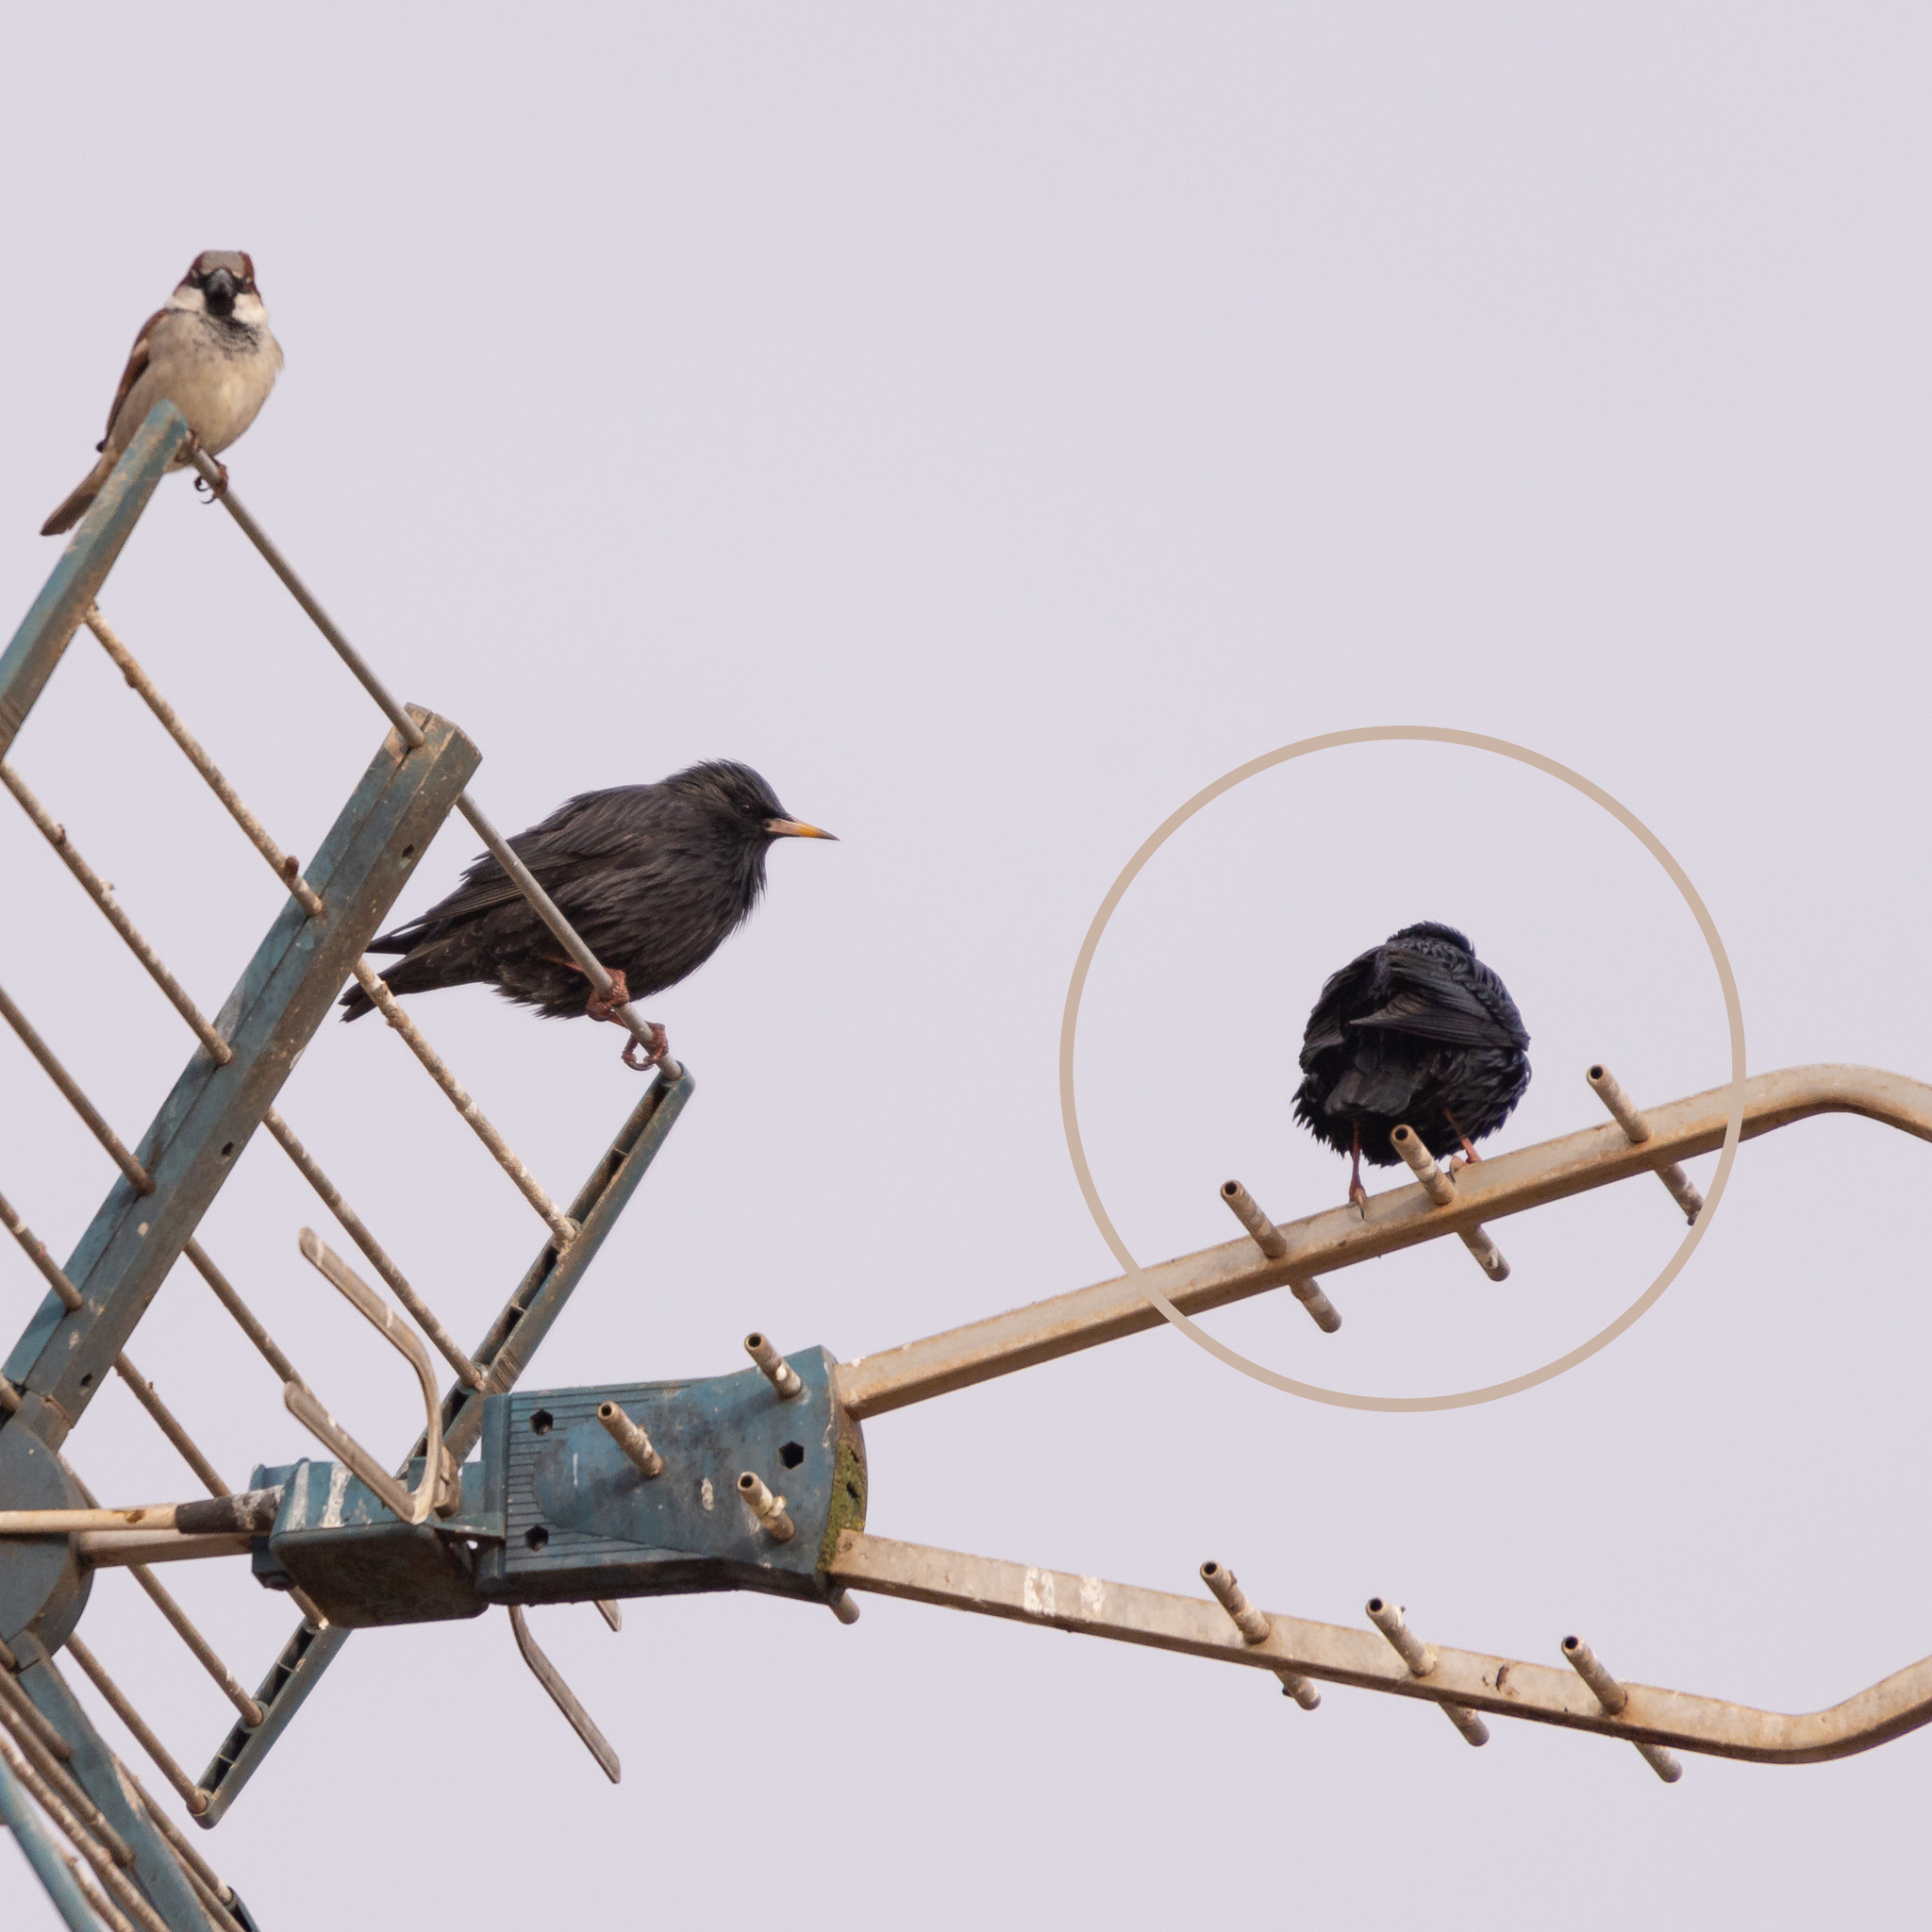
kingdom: Animalia
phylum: Chordata
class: Aves
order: Passeriformes
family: Sturnidae
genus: Sturnus
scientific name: Sturnus unicolor
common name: Spotless starling
